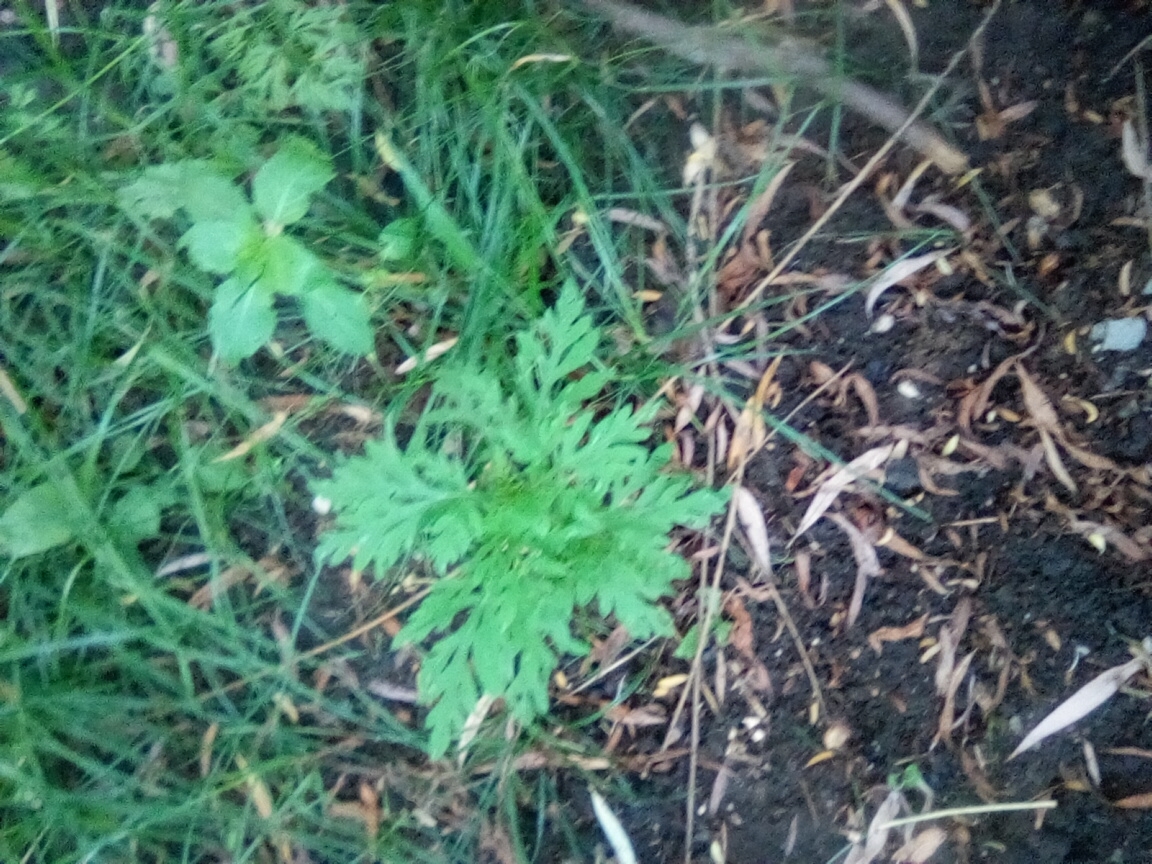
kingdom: Plantae
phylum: Tracheophyta
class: Magnoliopsida
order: Asterales
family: Asteraceae
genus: Ambrosia
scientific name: Ambrosia artemisiifolia
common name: Annual ragweed
